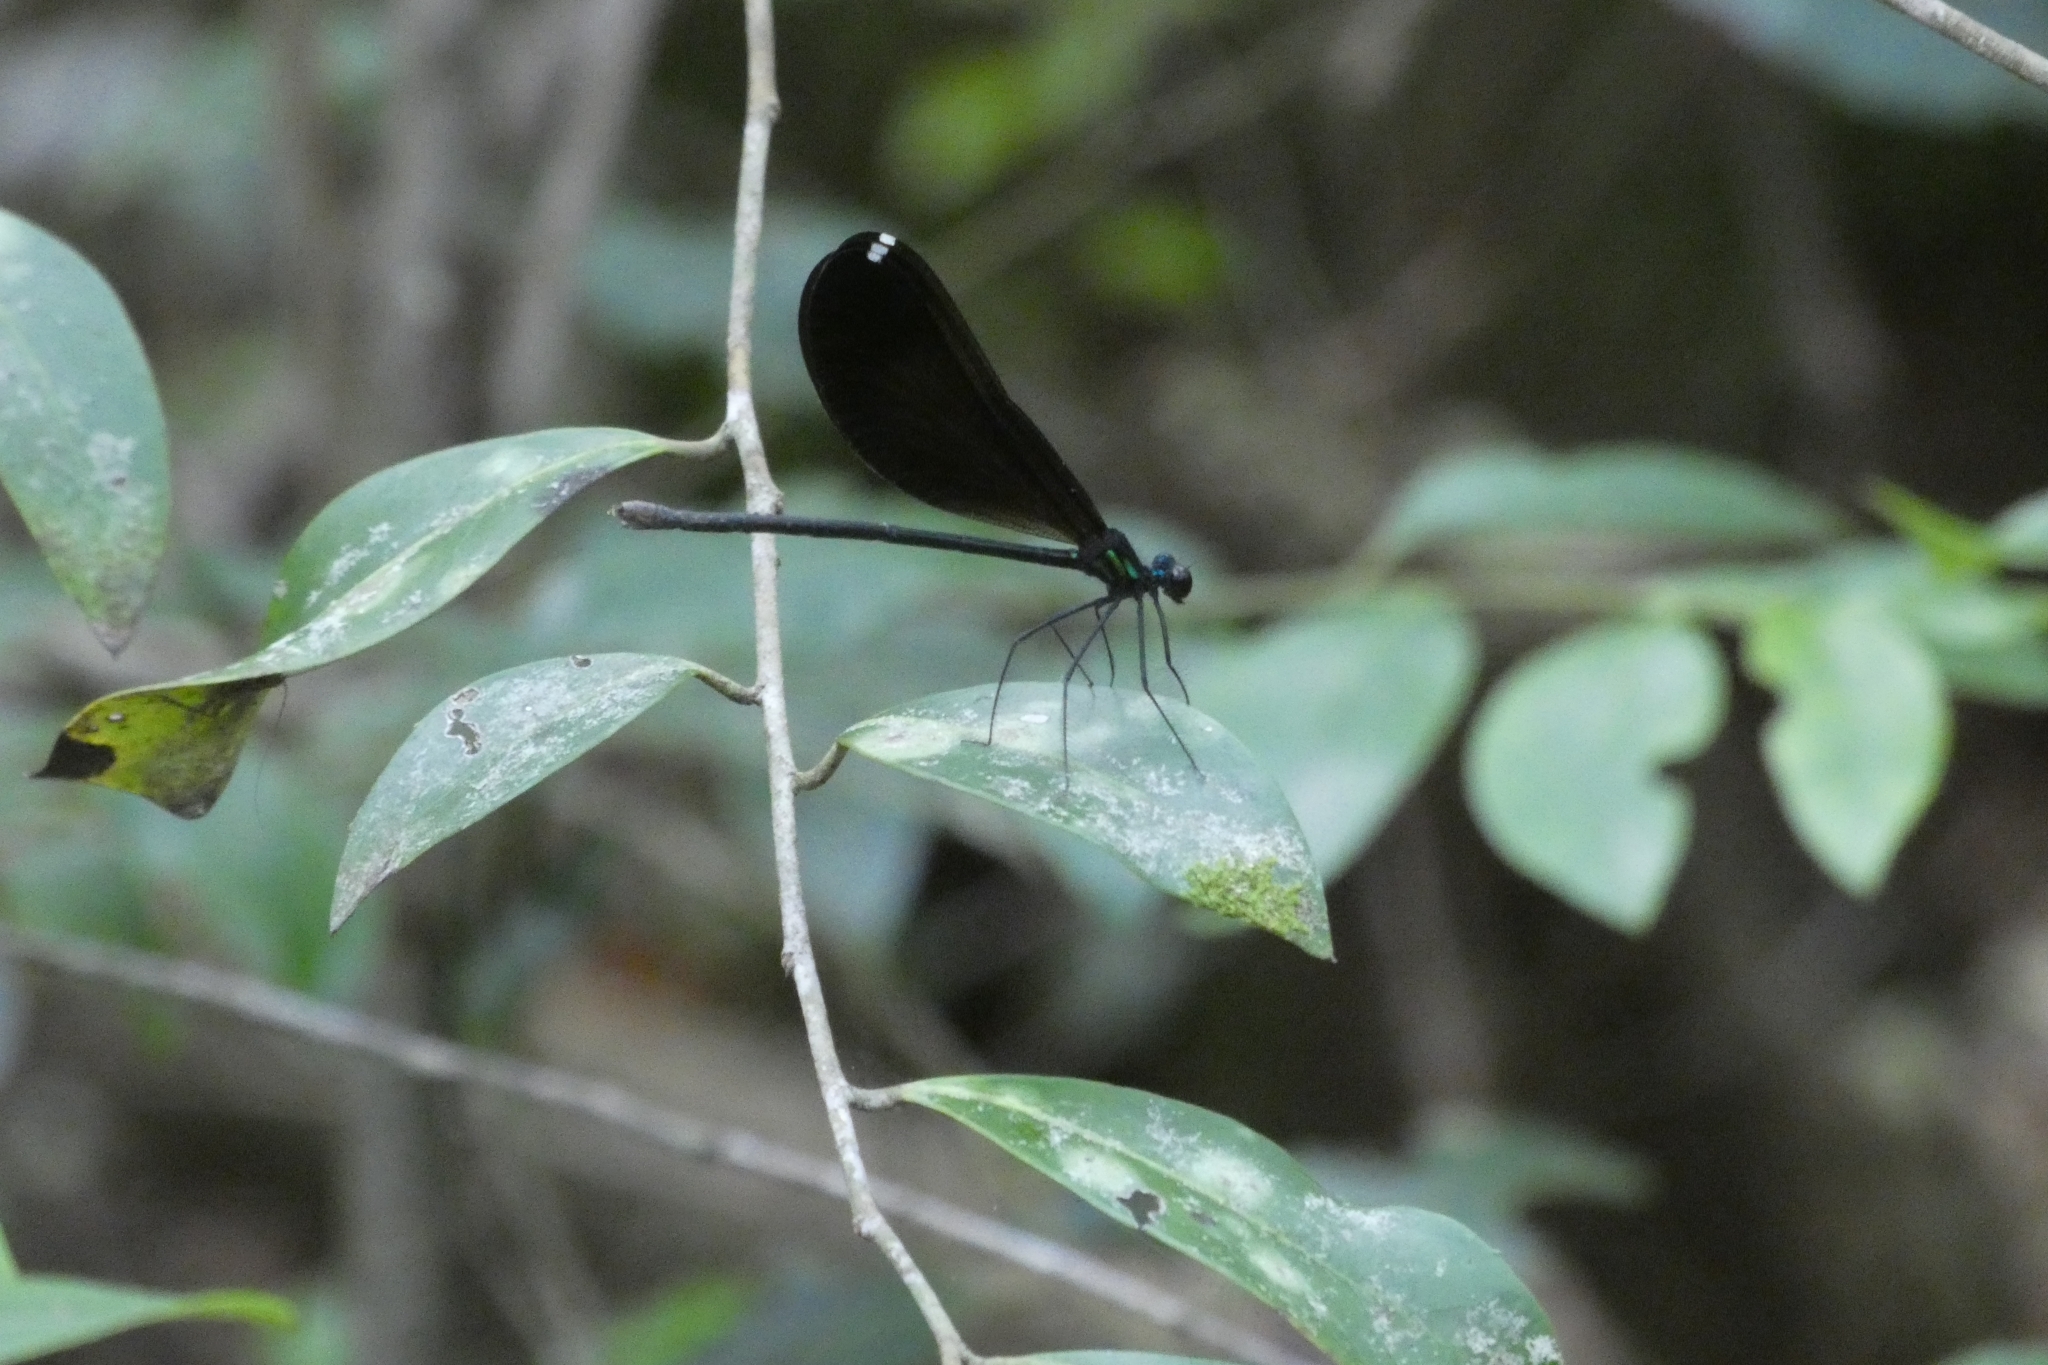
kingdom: Animalia
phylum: Arthropoda
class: Insecta
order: Odonata
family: Calopterygidae
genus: Calopteryx
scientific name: Calopteryx maculata
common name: Ebony jewelwing
